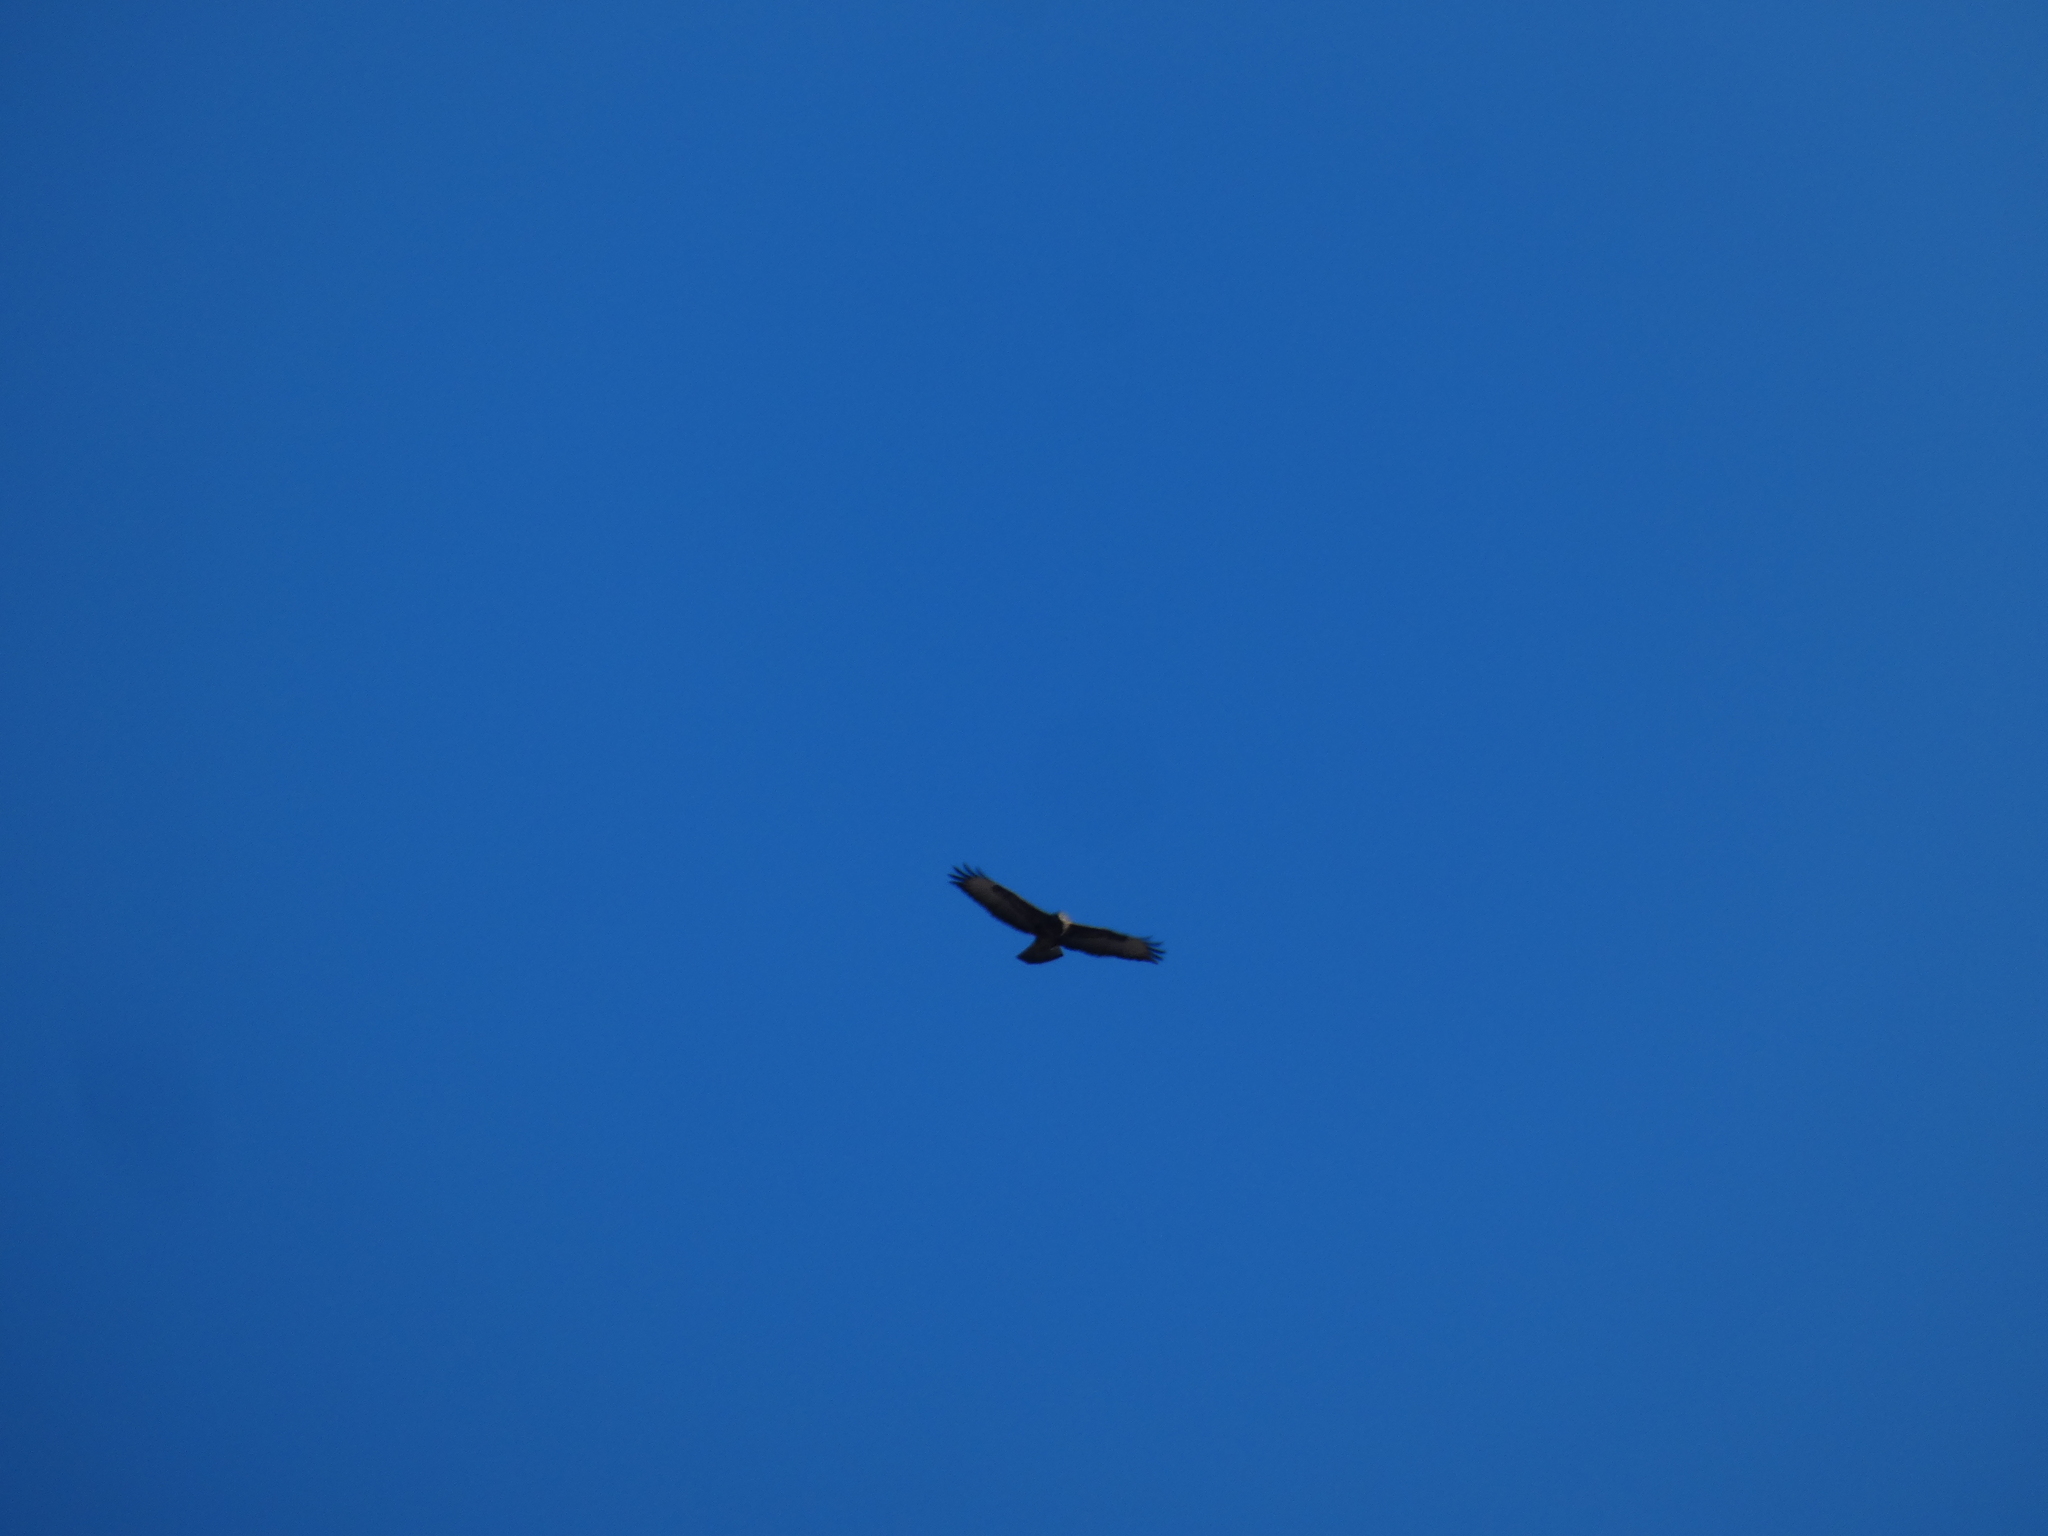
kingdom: Animalia
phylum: Chordata
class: Aves
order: Accipitriformes
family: Accipitridae
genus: Buteo
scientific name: Buteo buteo
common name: Common buzzard
